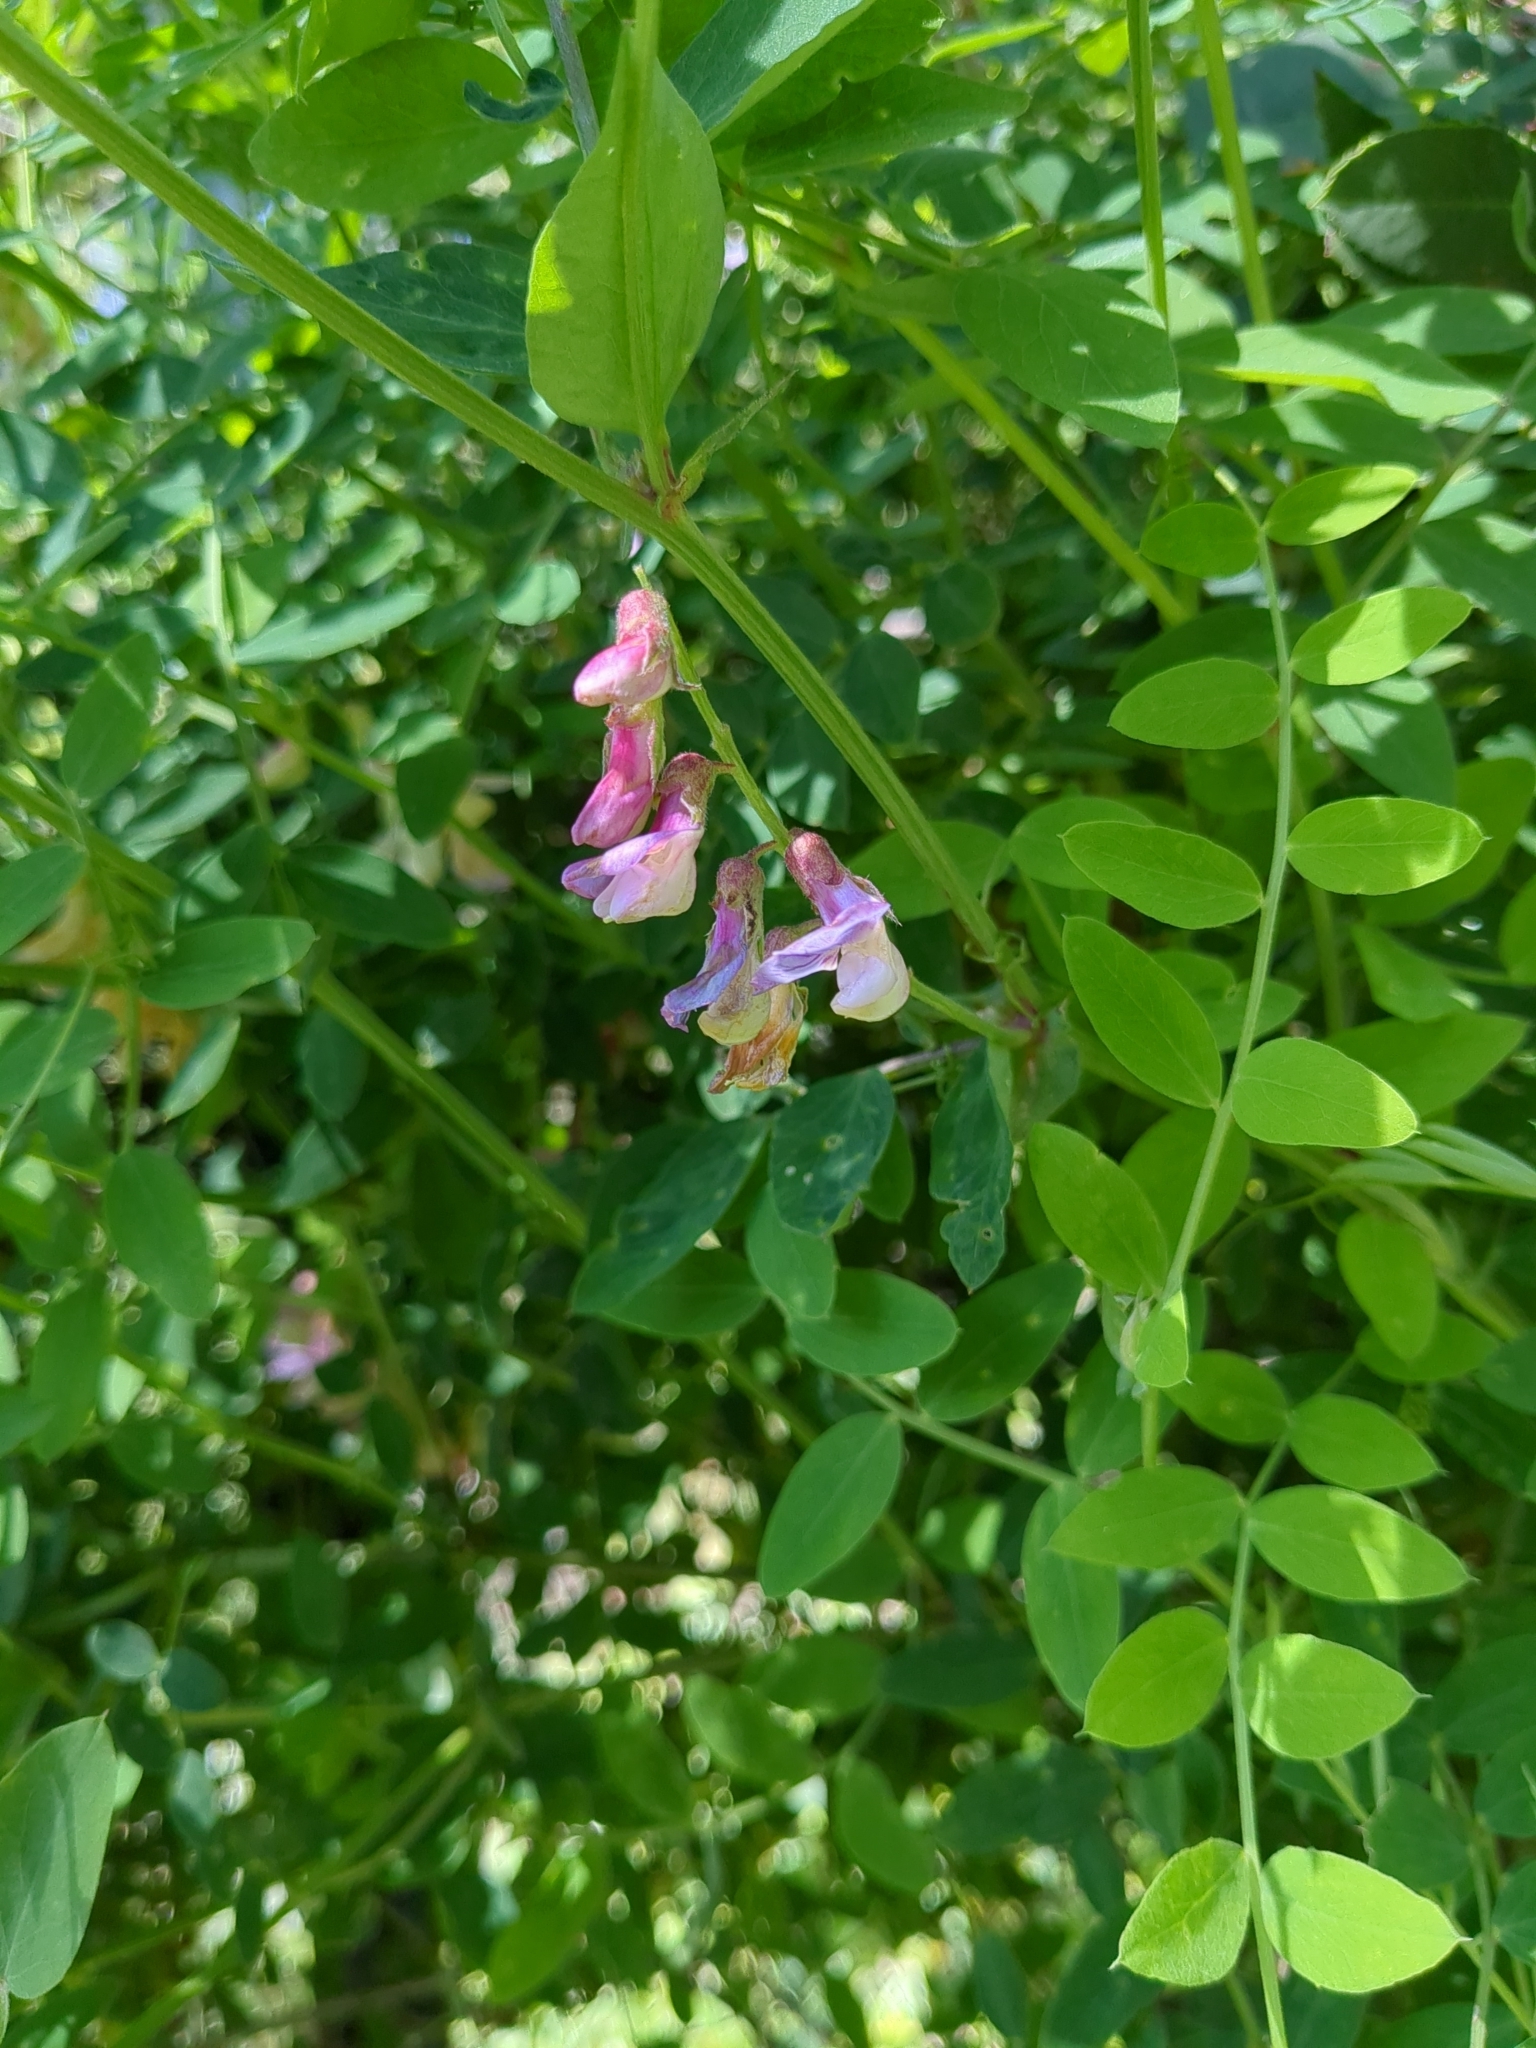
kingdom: Plantae
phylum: Tracheophyta
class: Magnoliopsida
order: Fabales
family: Fabaceae
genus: Lathyrus
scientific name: Lathyrus vestitus
